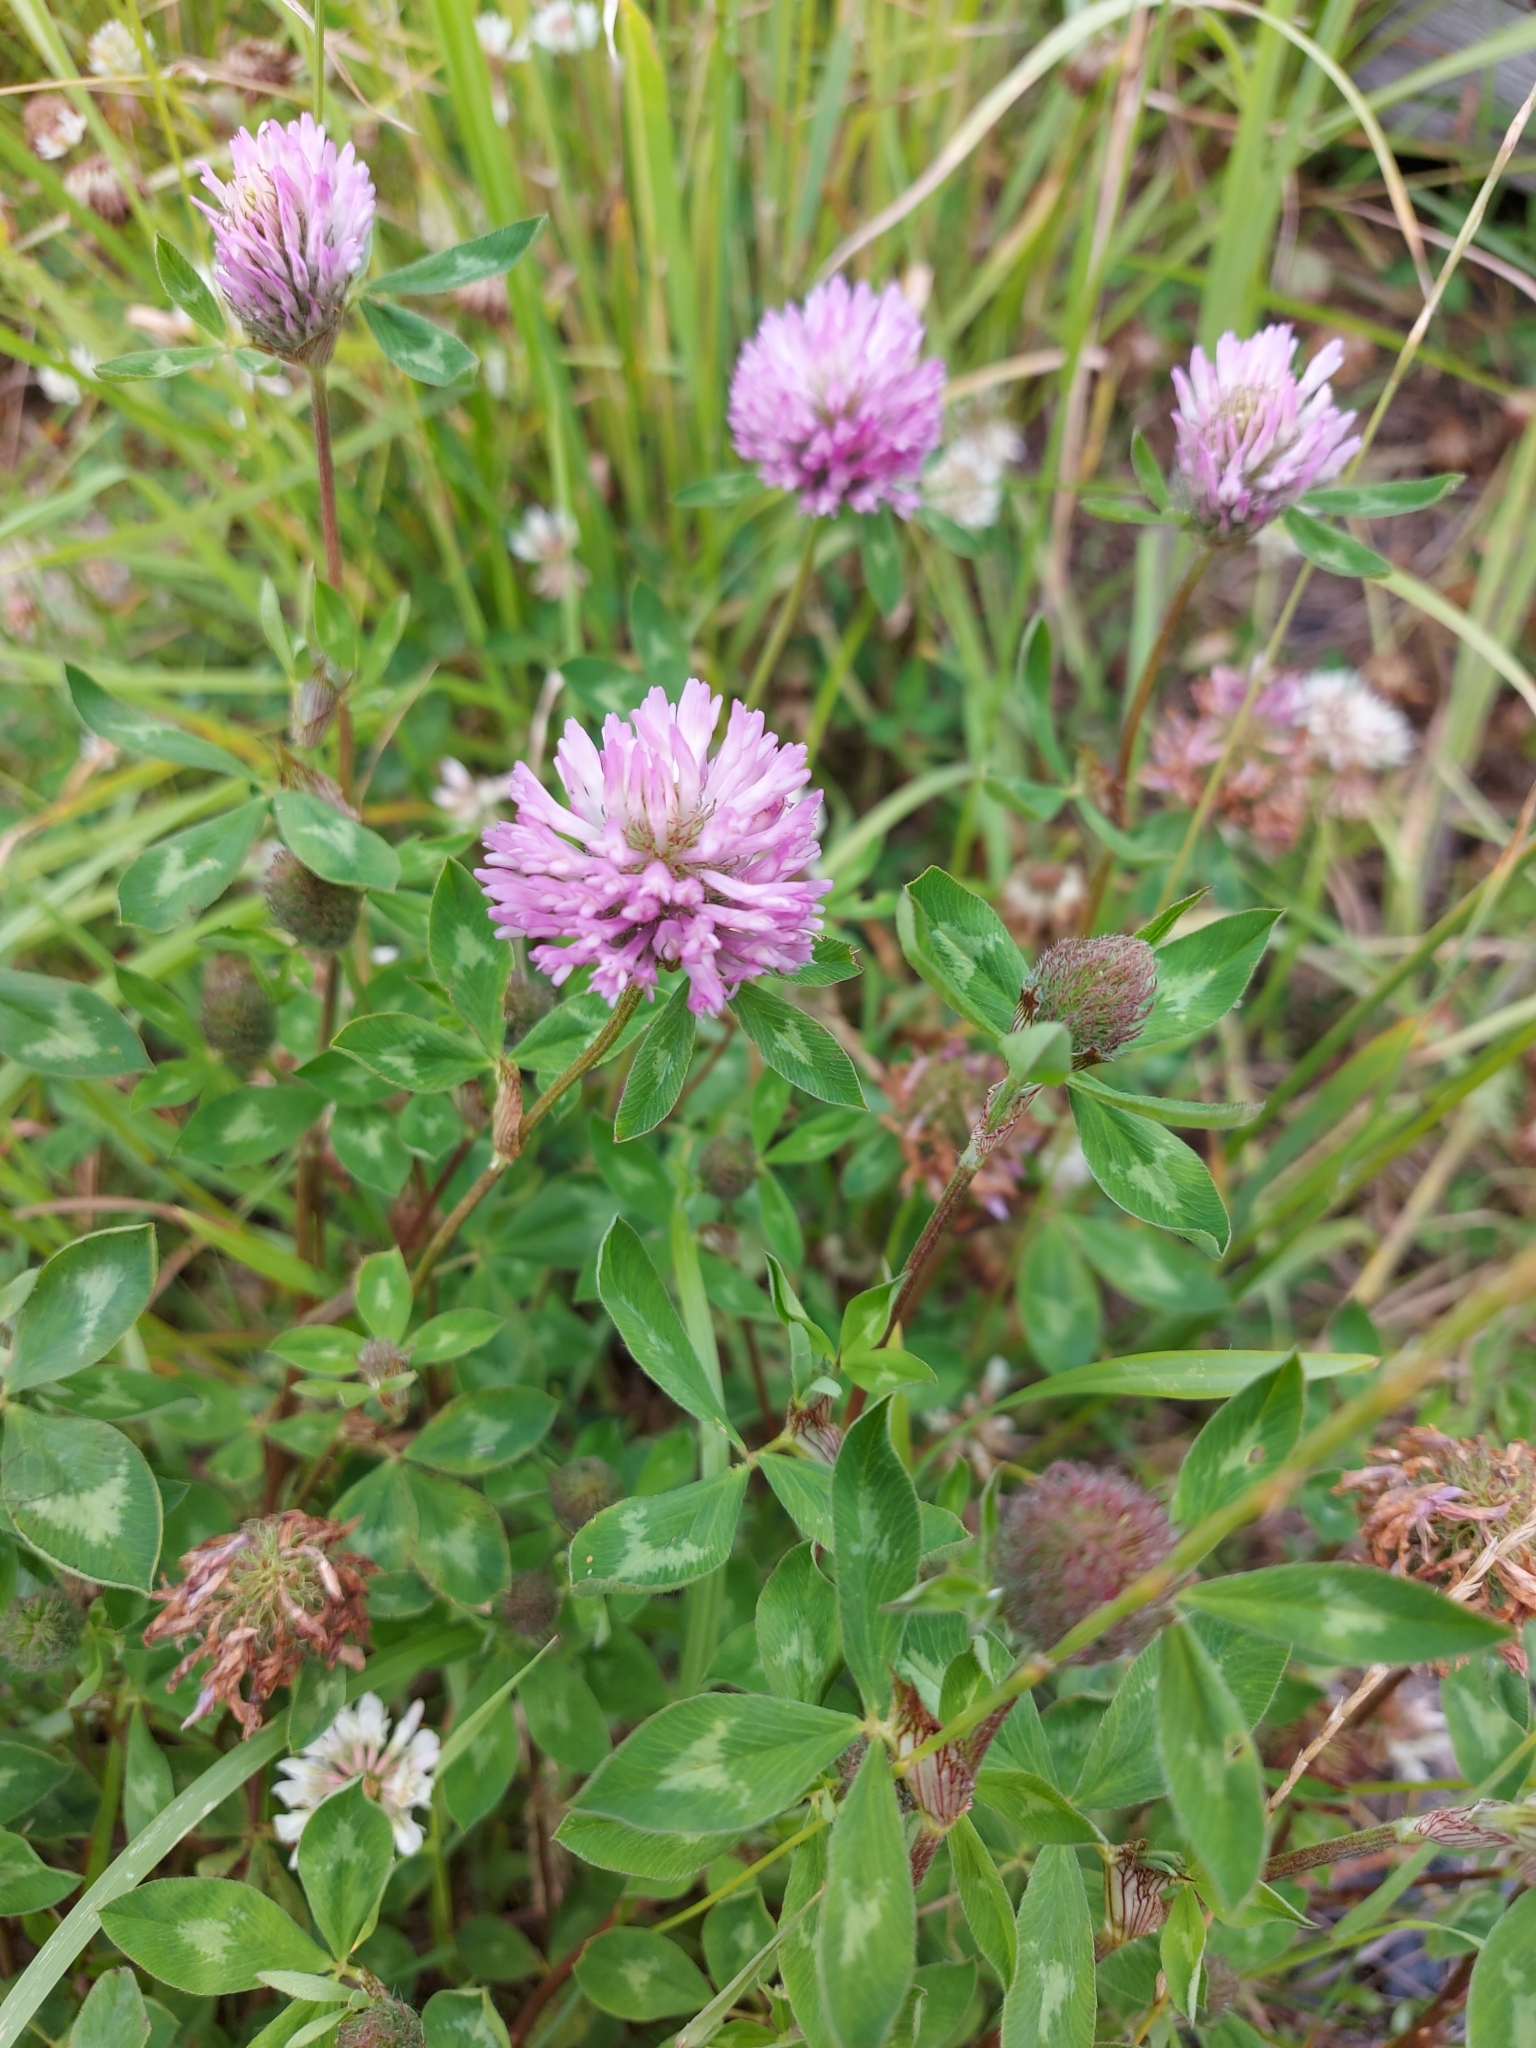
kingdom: Plantae
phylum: Tracheophyta
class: Magnoliopsida
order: Fabales
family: Fabaceae
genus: Trifolium
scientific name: Trifolium pratense
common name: Red clover
